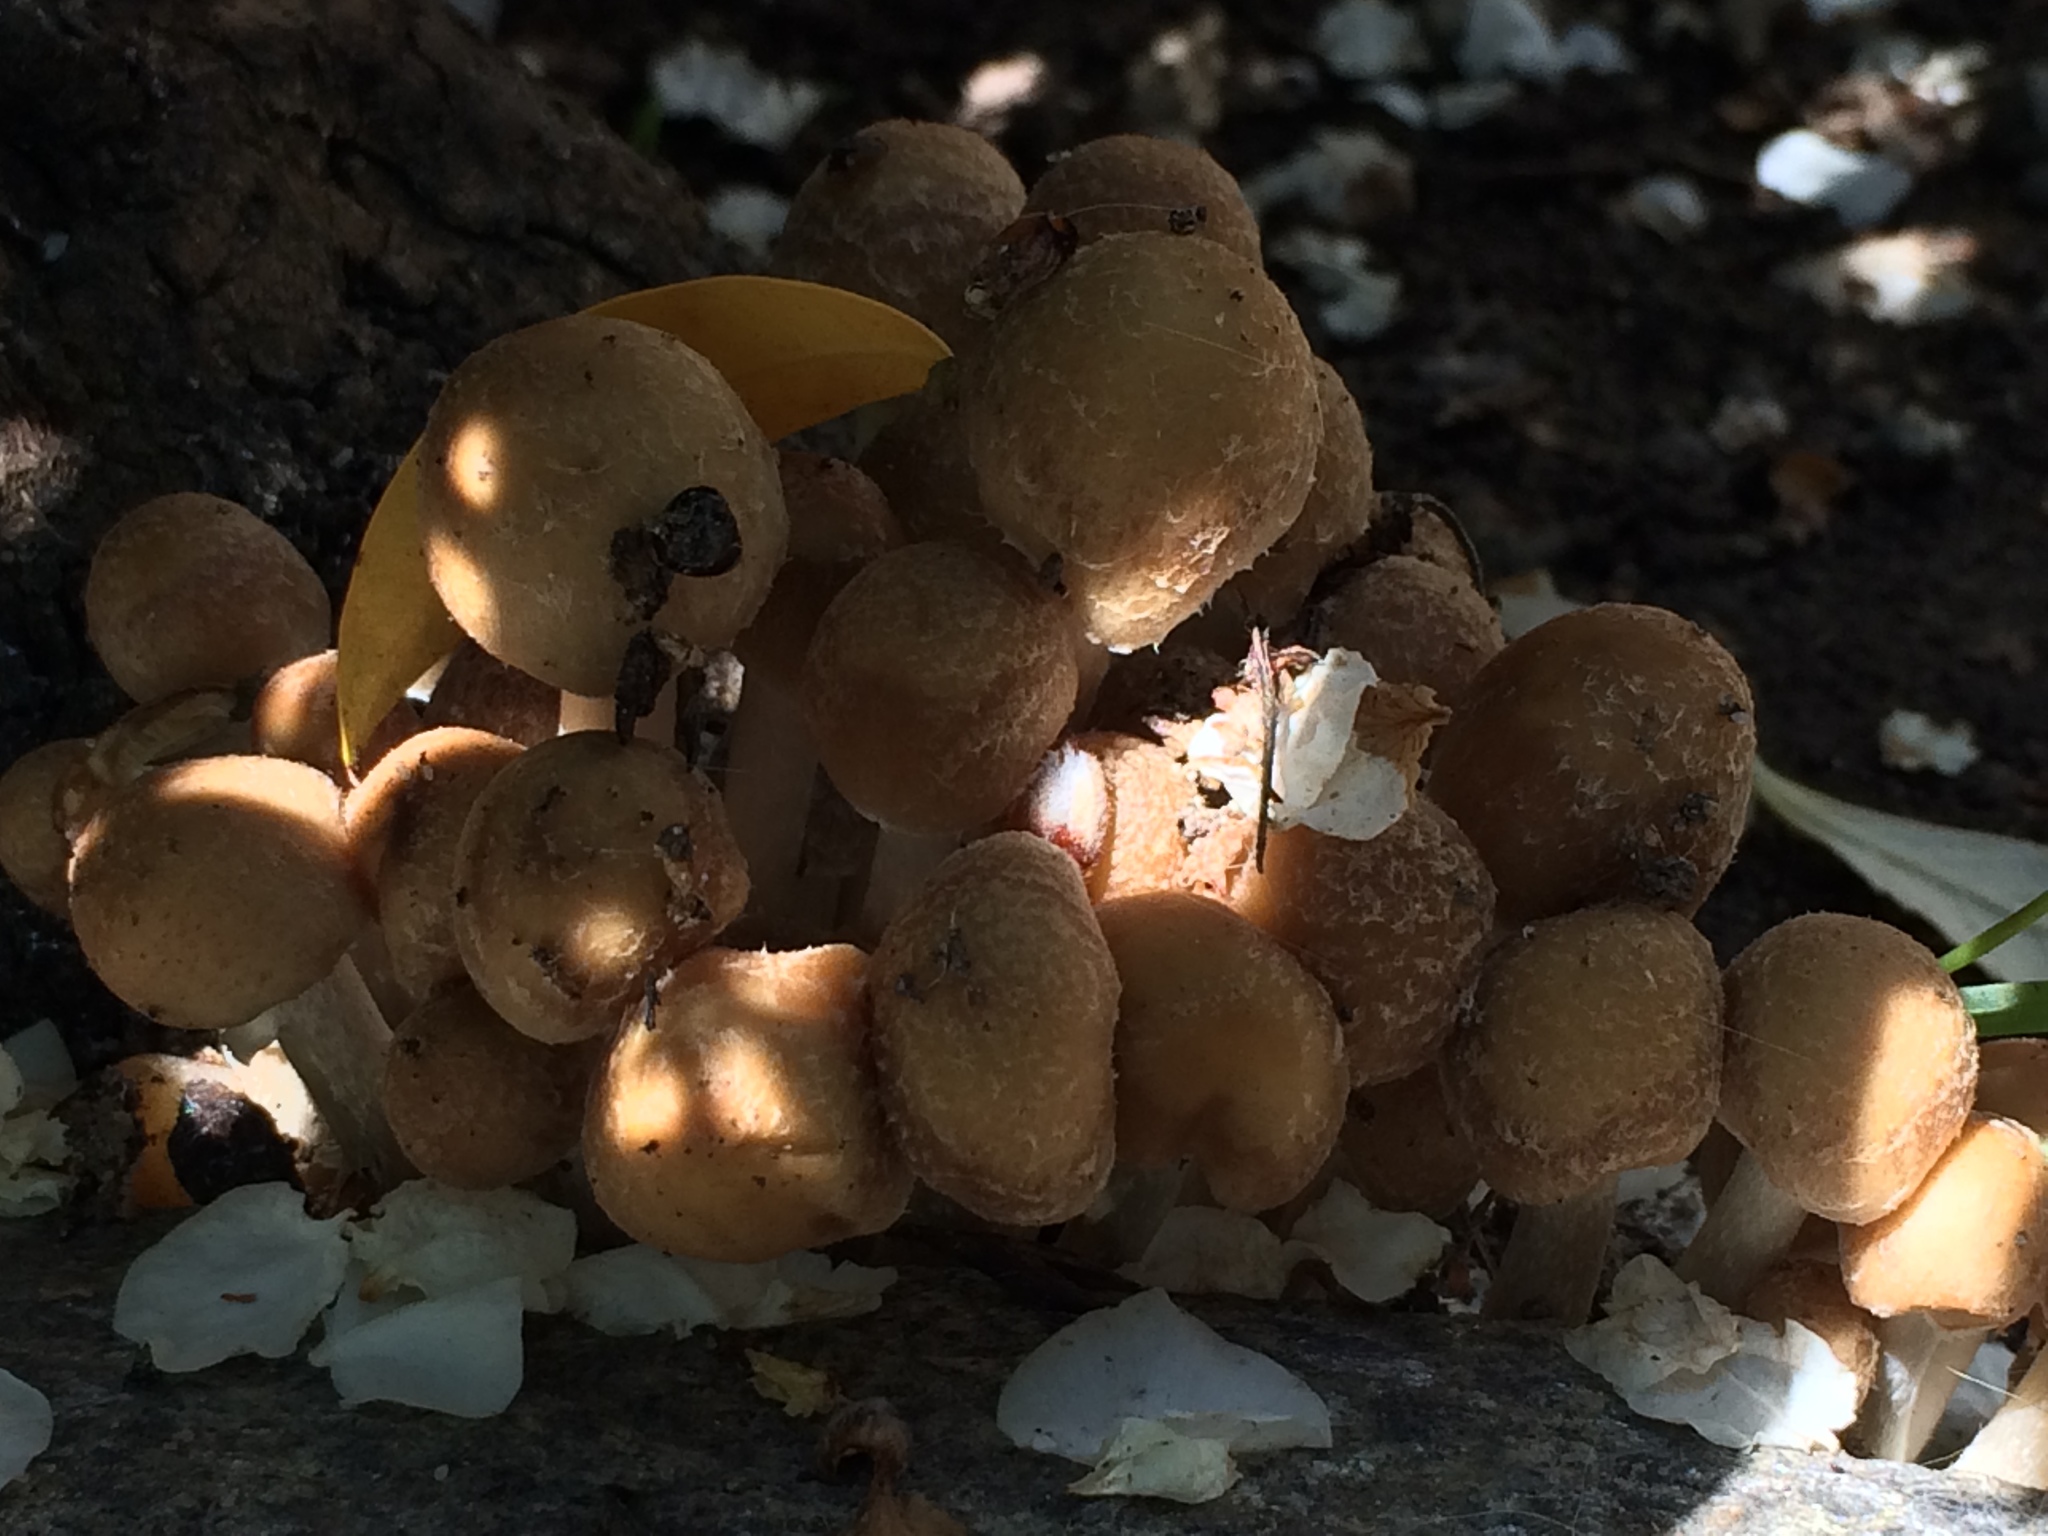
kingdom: Fungi
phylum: Basidiomycota
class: Agaricomycetes
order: Agaricales
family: Psathyrellaceae
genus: Candolleomyces
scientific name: Candolleomyces candolleanus
